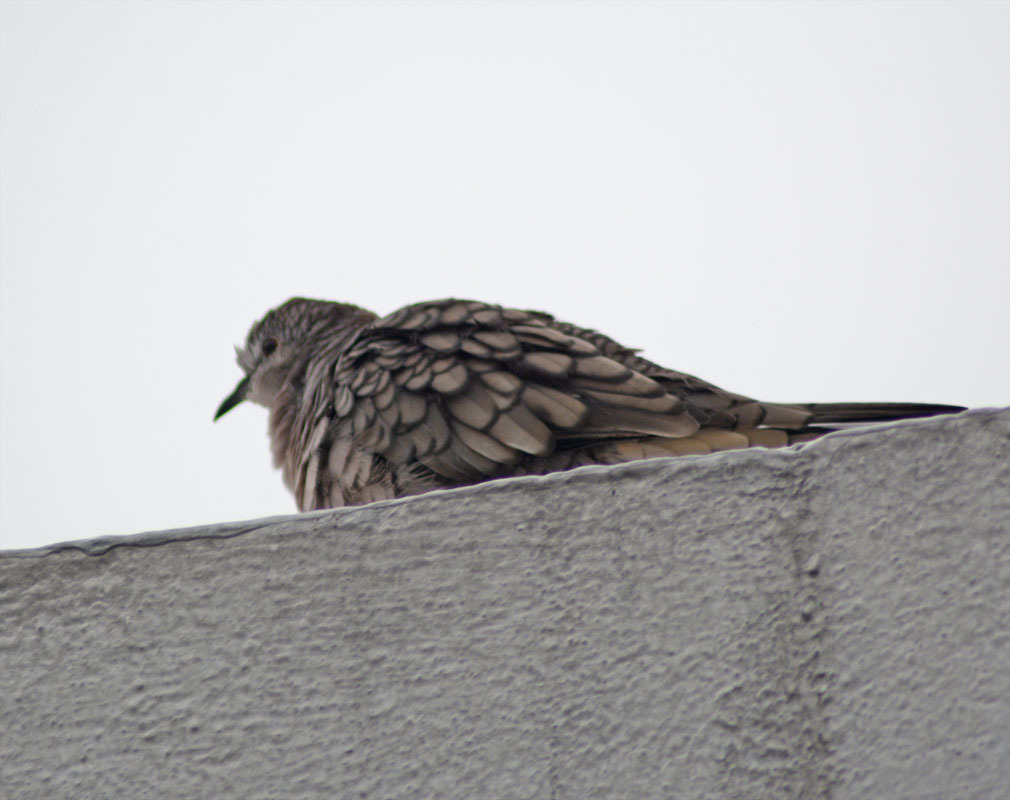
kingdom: Animalia
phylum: Chordata
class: Aves
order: Columbiformes
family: Columbidae
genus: Columbina
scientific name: Columbina inca
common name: Inca dove
